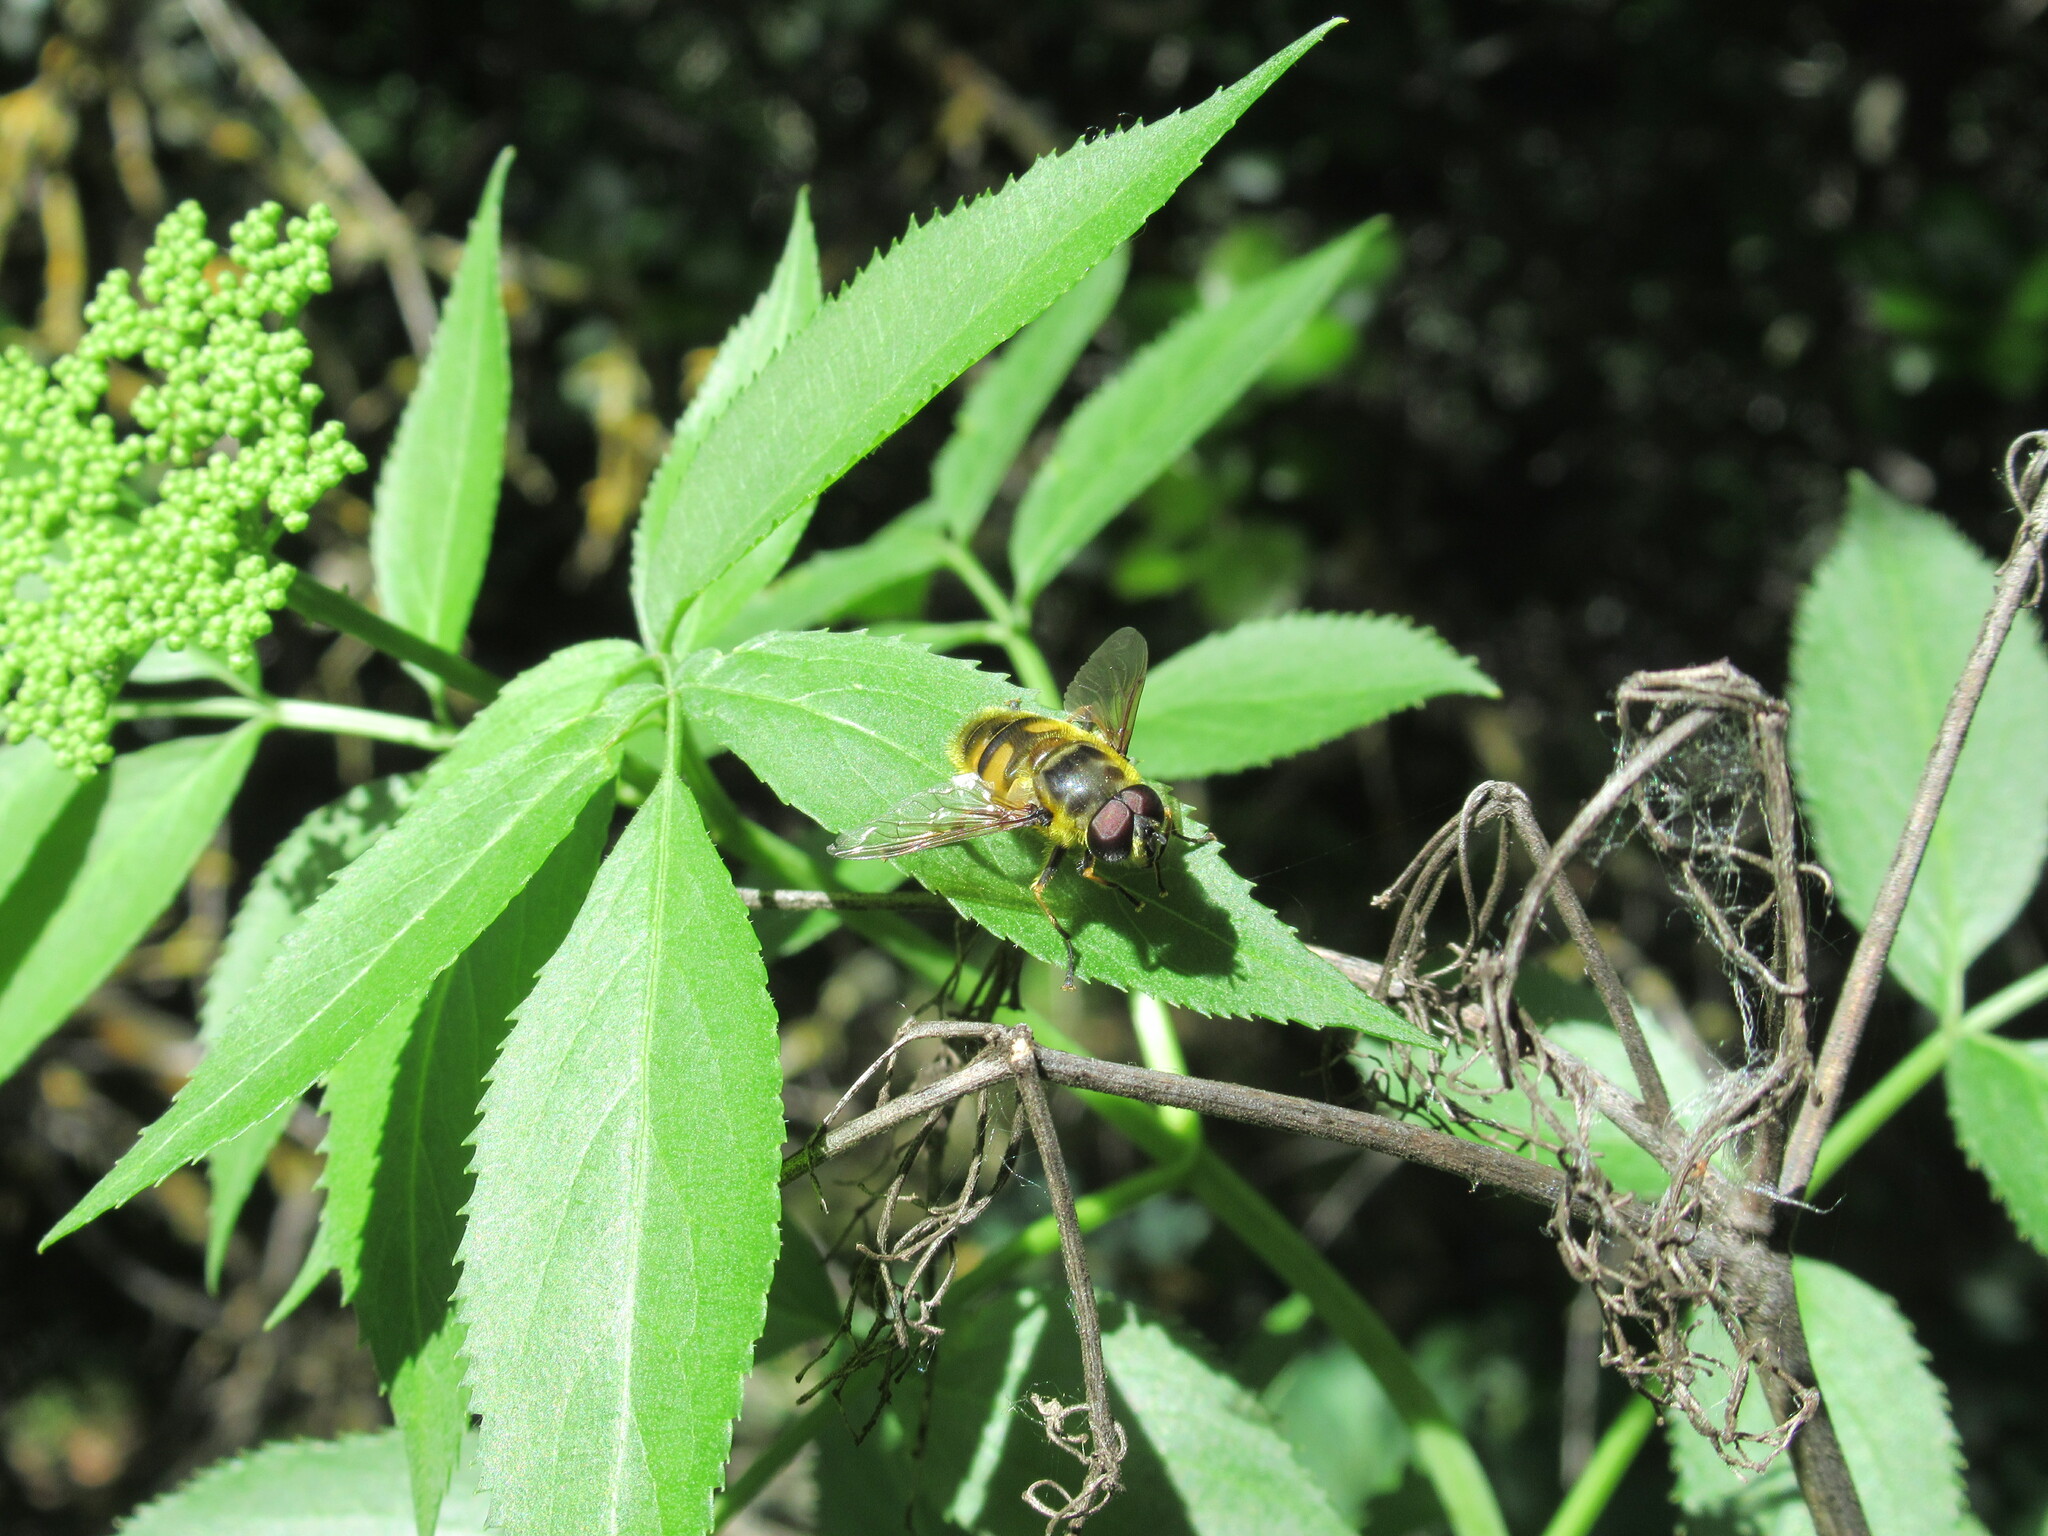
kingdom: Animalia
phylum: Arthropoda
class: Insecta
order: Diptera
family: Syrphidae
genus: Myathropa
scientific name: Myathropa florea
